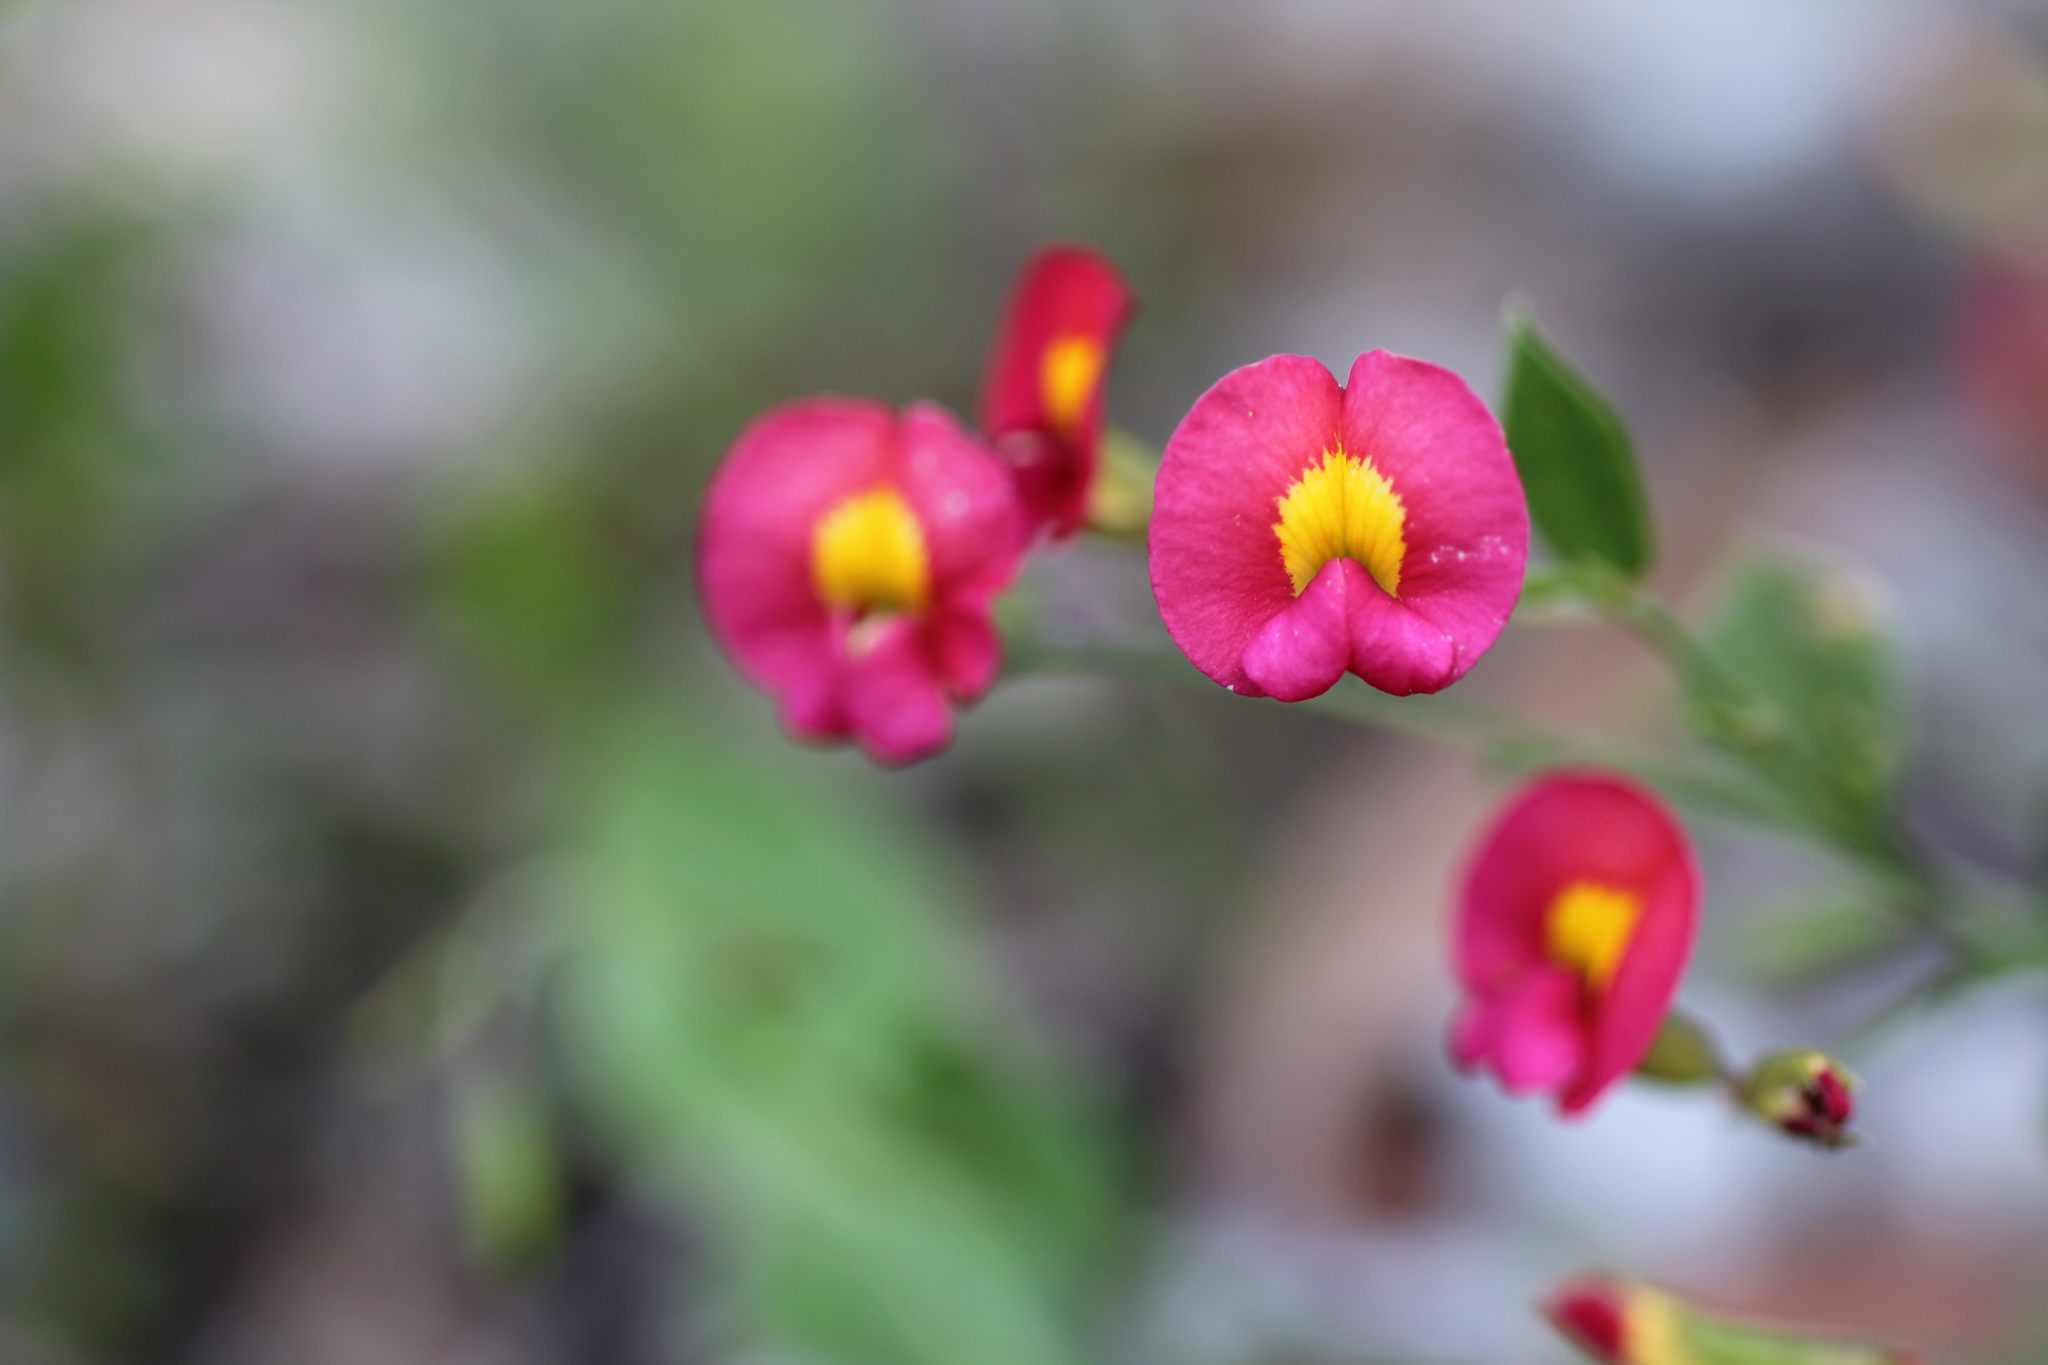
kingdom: Plantae
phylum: Tracheophyta
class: Magnoliopsida
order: Fabales
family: Fabaceae
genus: Chorizema
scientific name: Chorizema rhombeum
